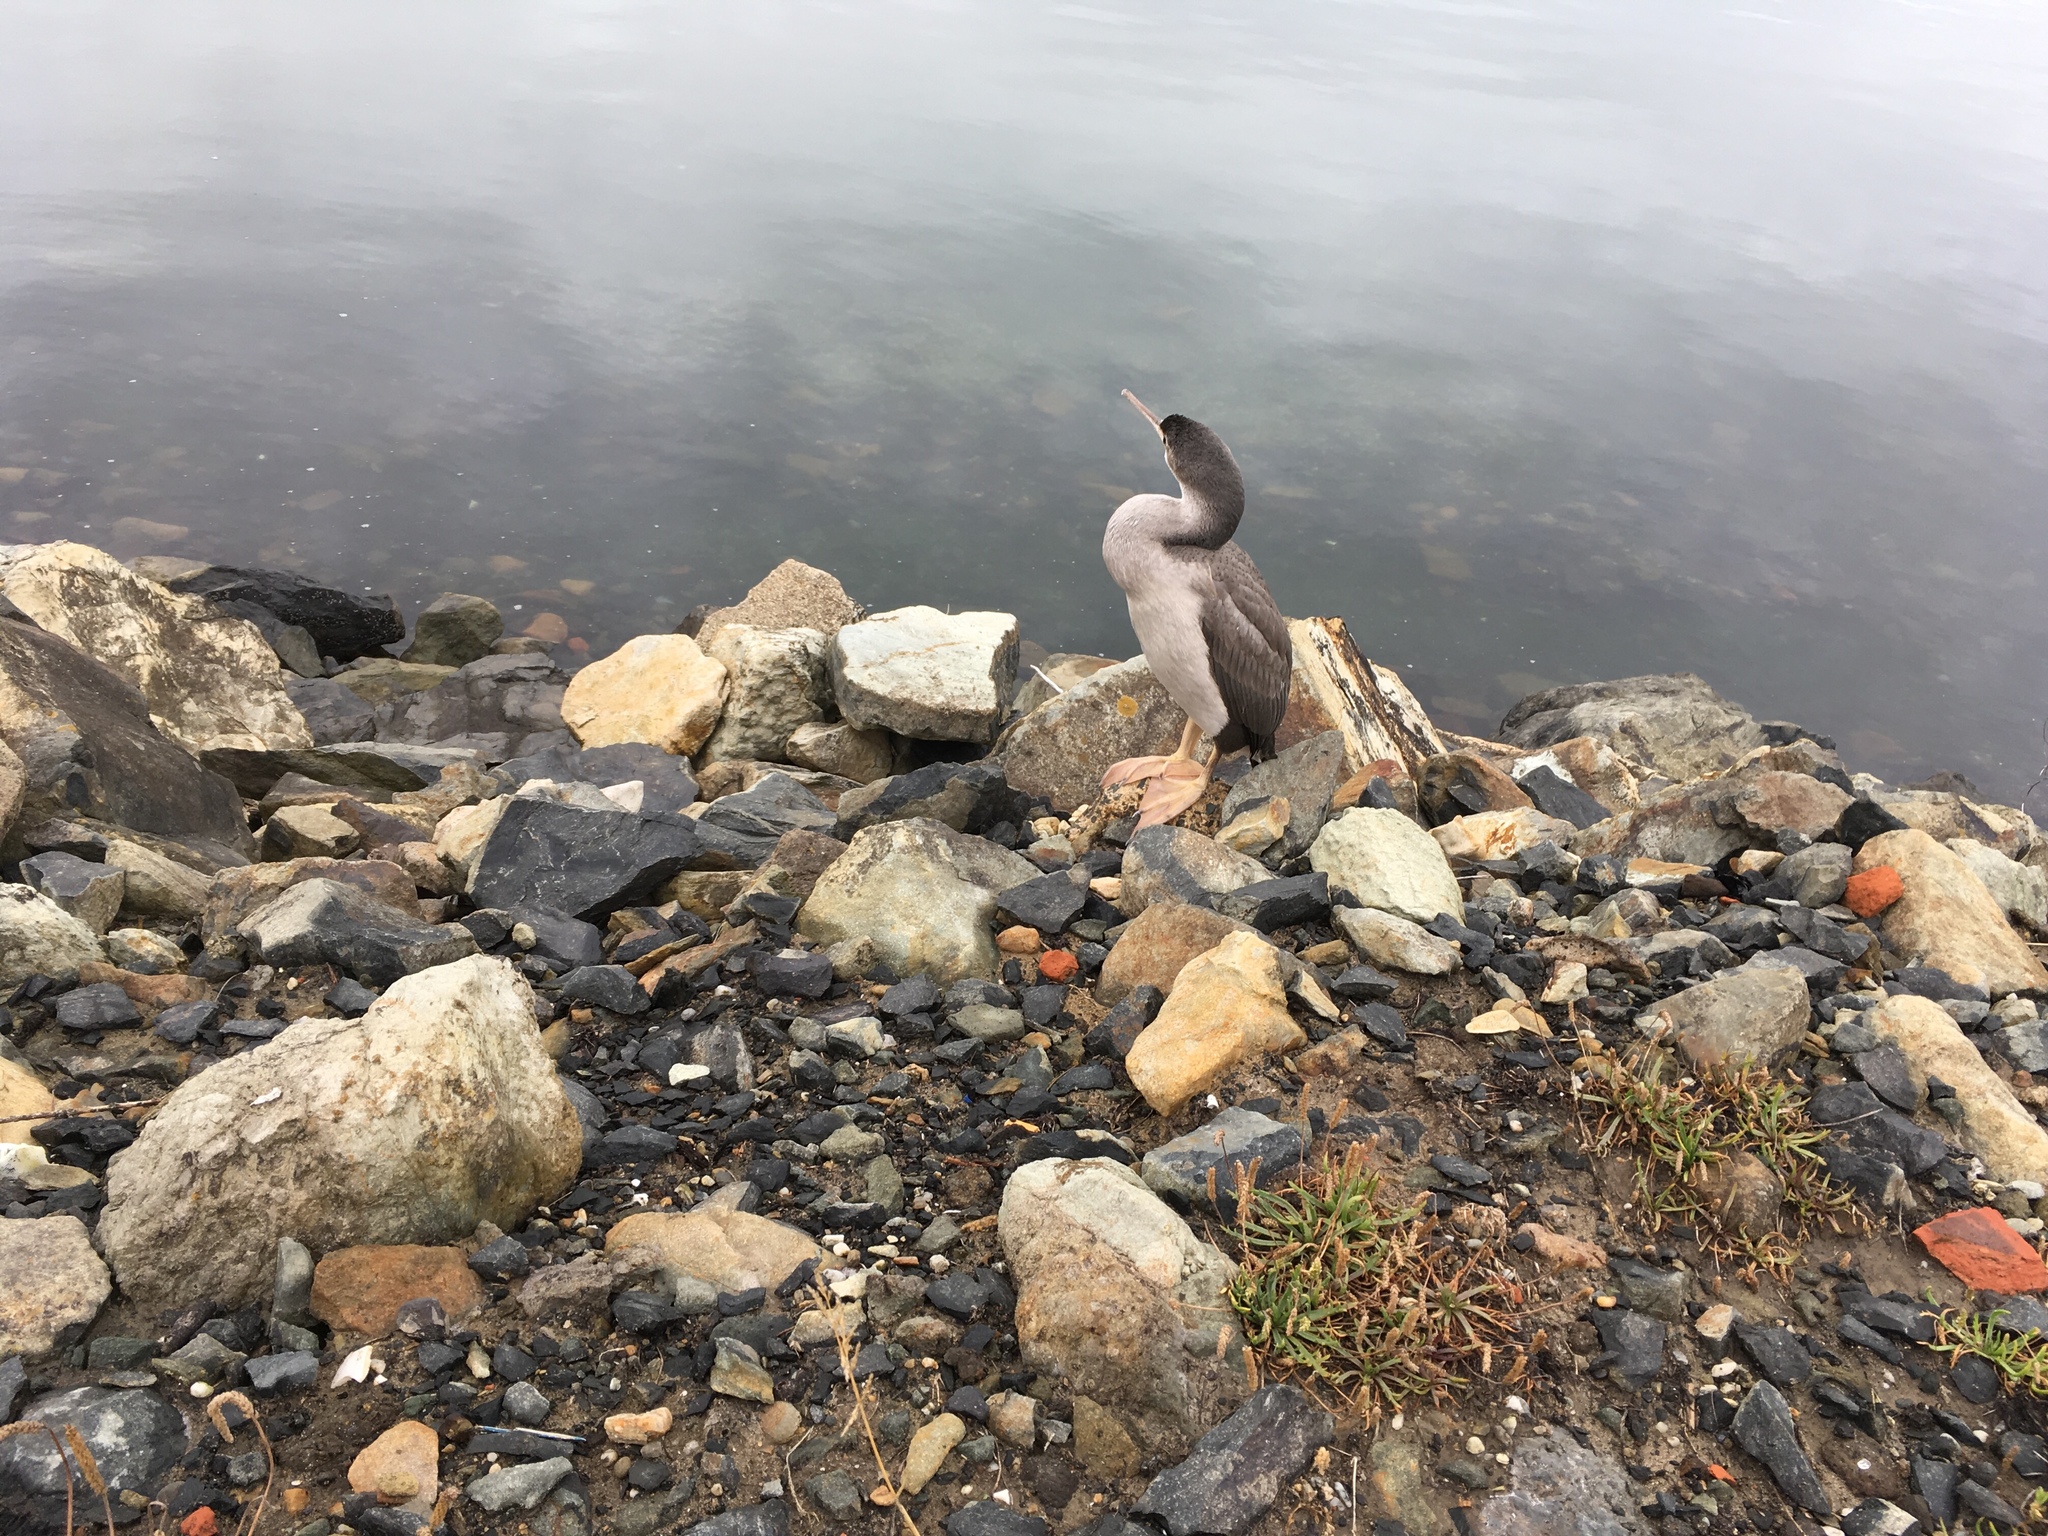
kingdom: Animalia
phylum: Chordata
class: Aves
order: Suliformes
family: Phalacrocoracidae
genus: Phalacrocorax
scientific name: Phalacrocorax punctatus
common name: Spotted shag
